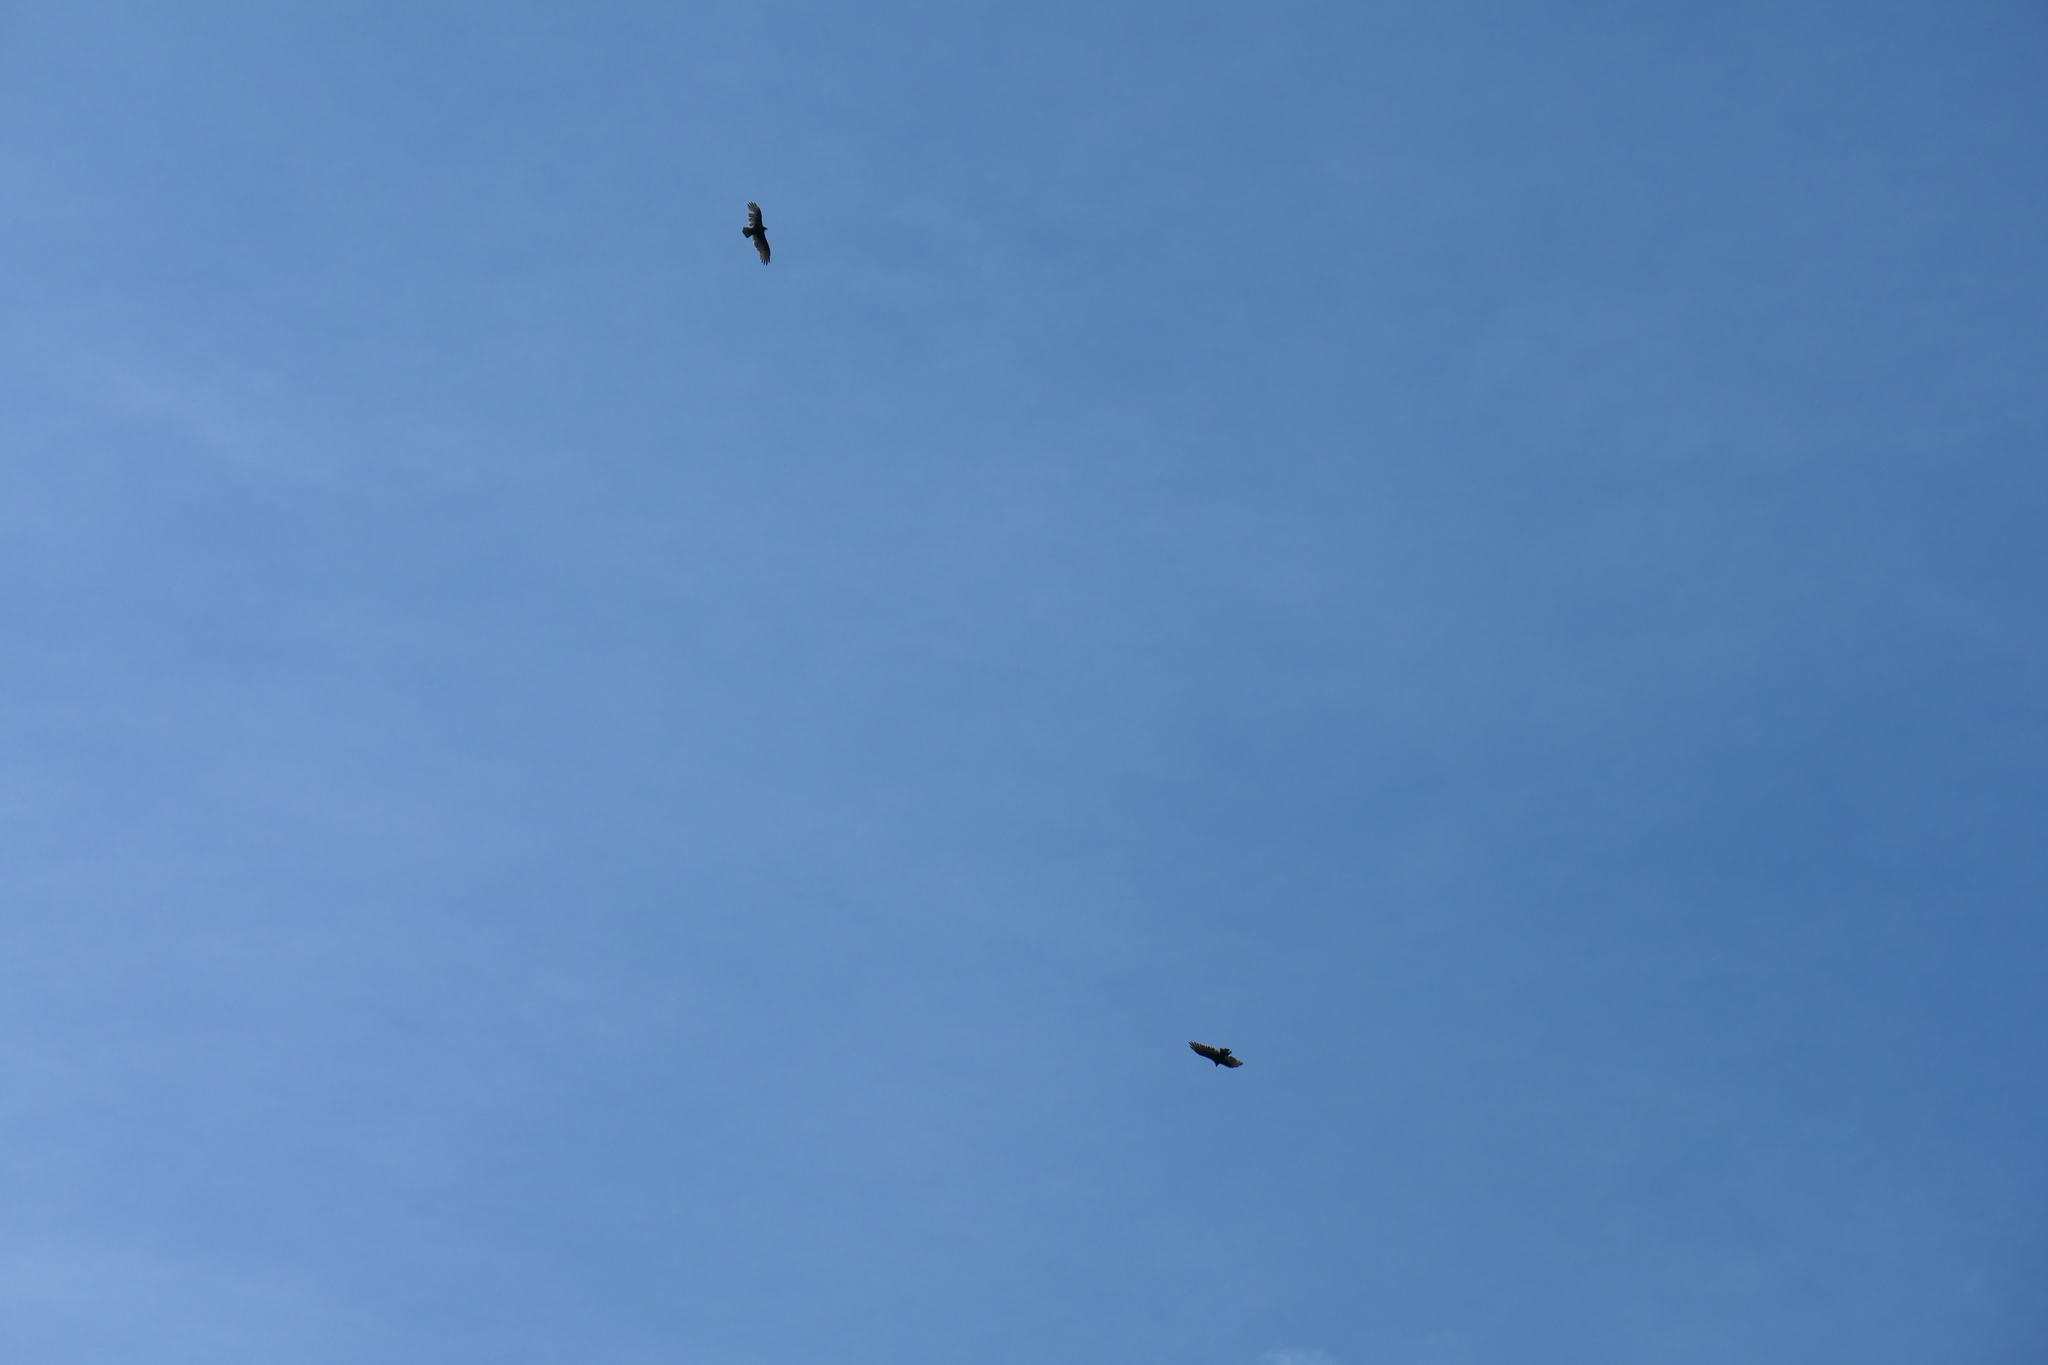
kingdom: Animalia
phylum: Chordata
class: Aves
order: Accipitriformes
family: Cathartidae
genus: Cathartes
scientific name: Cathartes aura
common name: Turkey vulture
